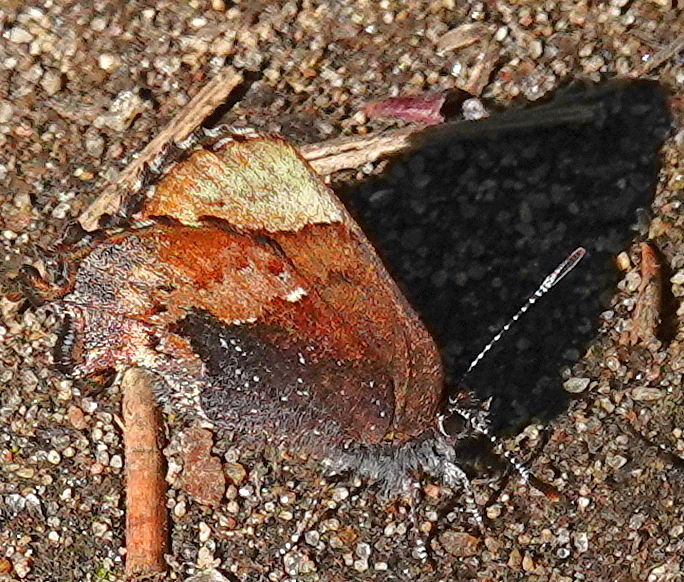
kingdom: Animalia
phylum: Arthropoda
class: Insecta
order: Lepidoptera
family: Lycaenidae
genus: Incisalia
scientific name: Incisalia henrici
